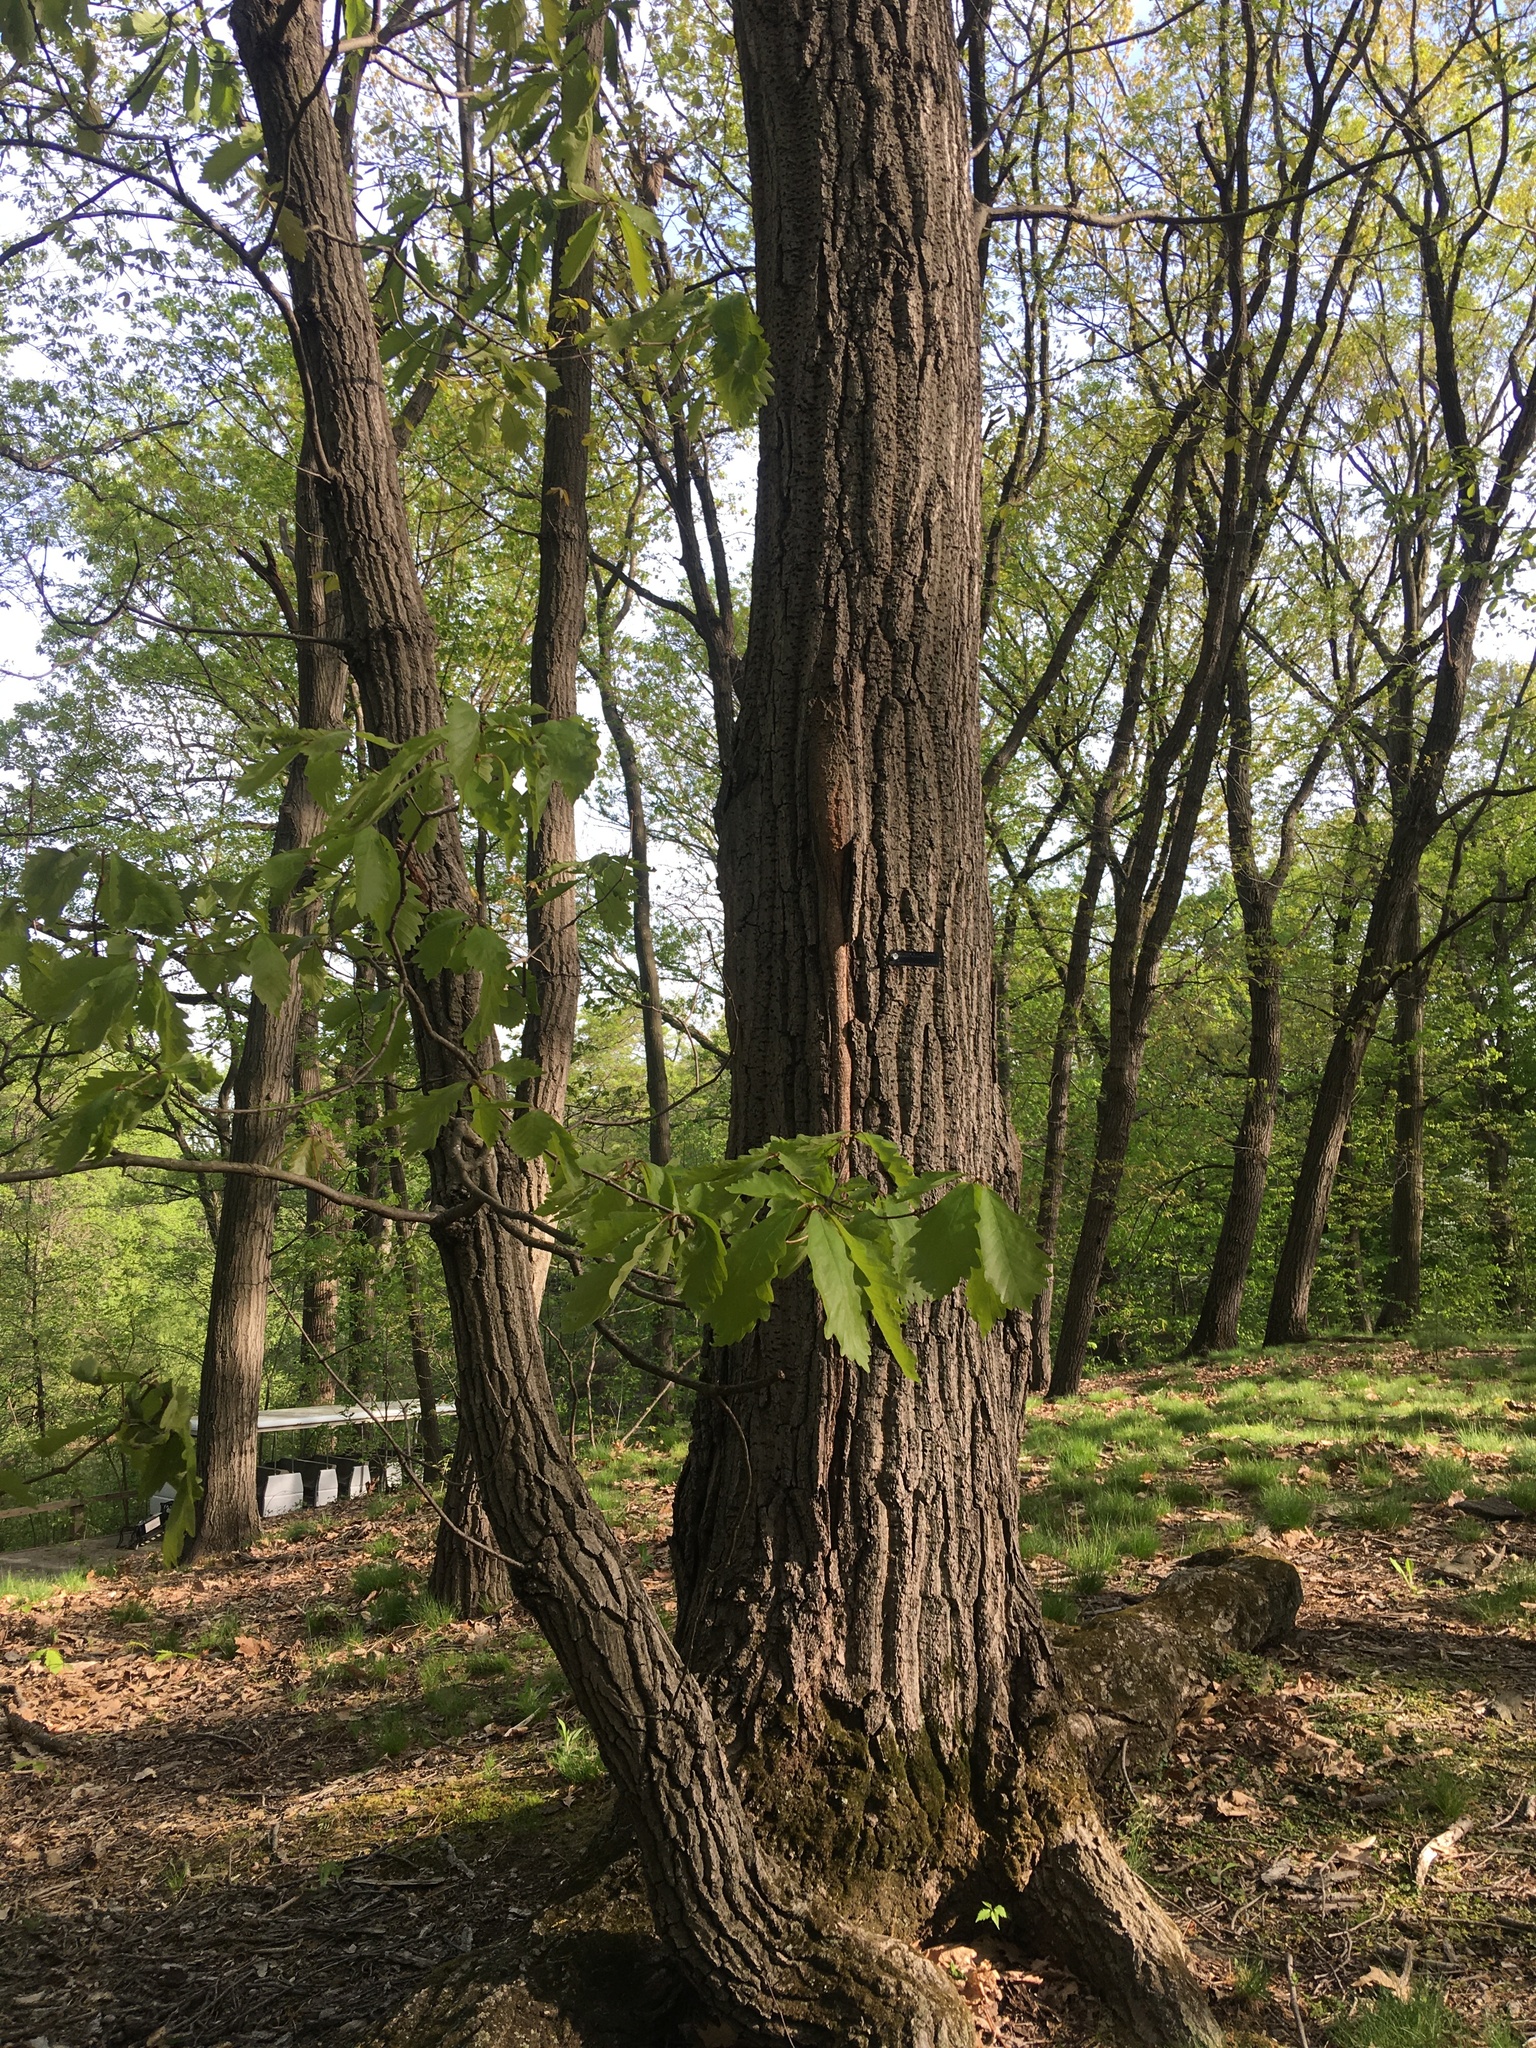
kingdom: Plantae
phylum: Tracheophyta
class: Magnoliopsida
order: Fagales
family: Fagaceae
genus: Quercus
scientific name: Quercus montana
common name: Chestnut oak
